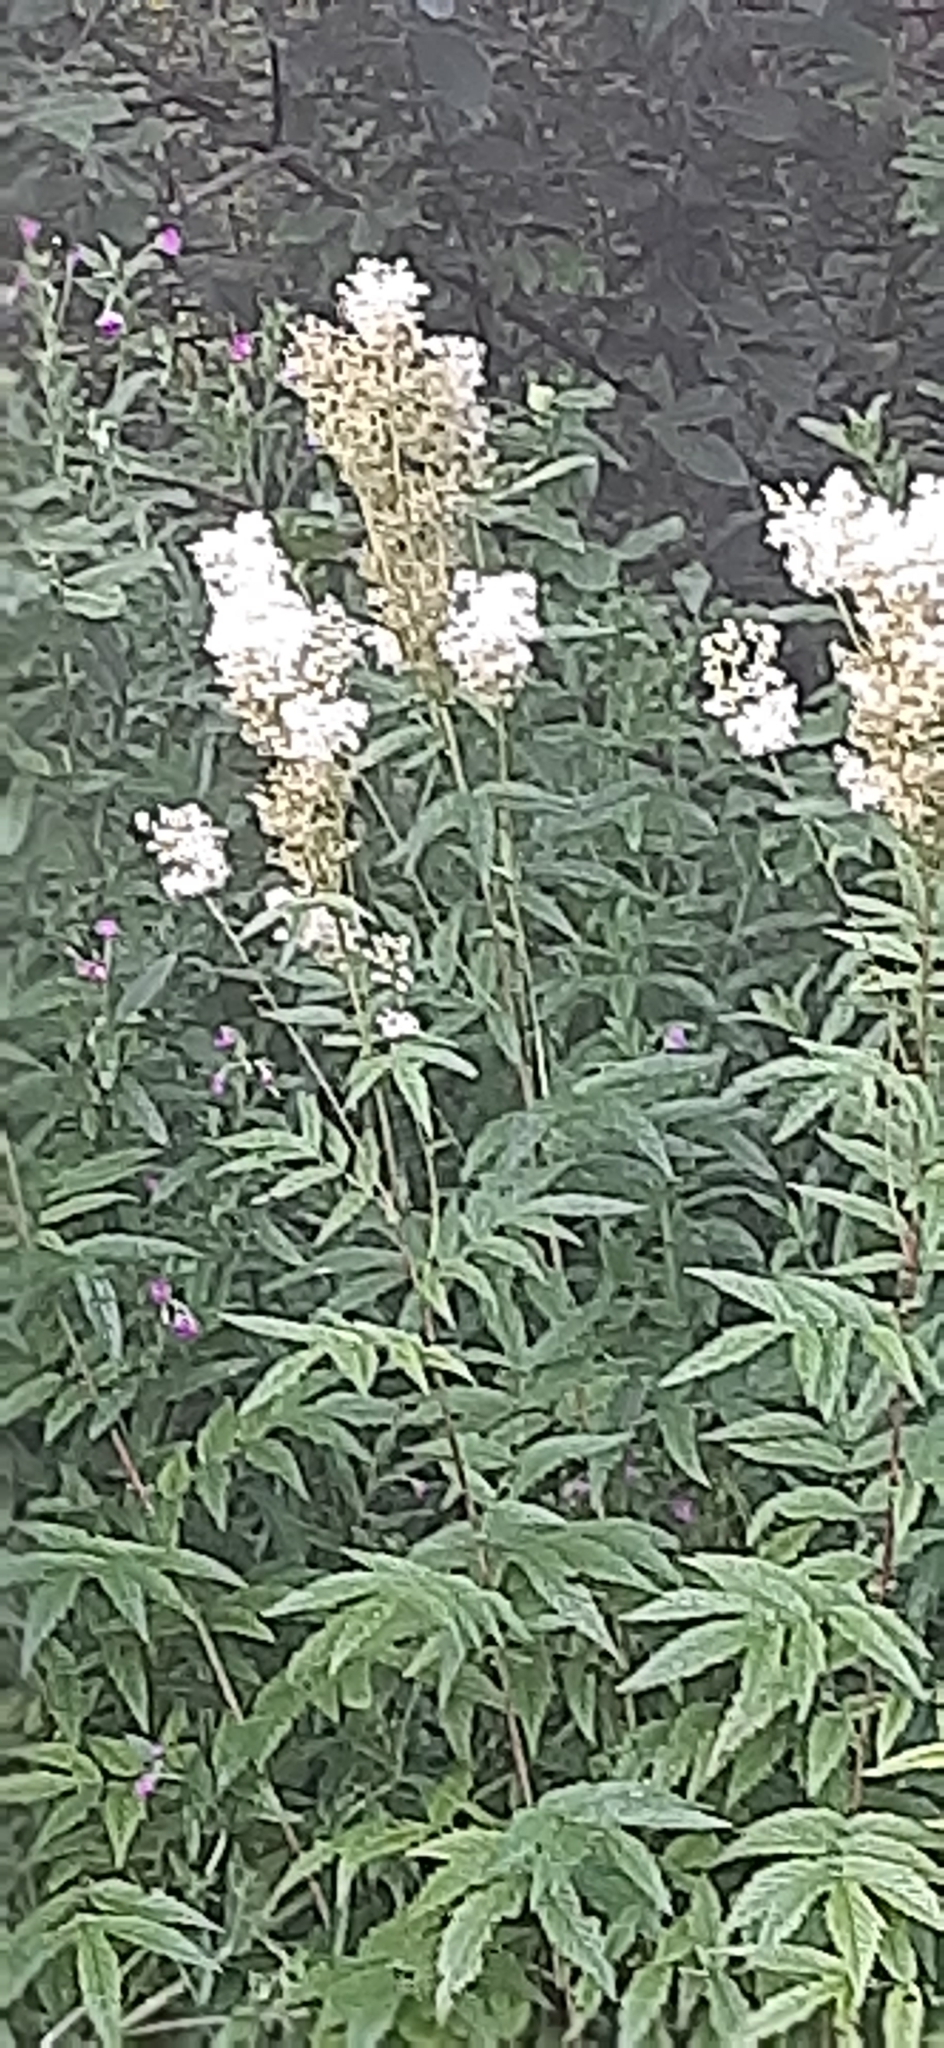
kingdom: Plantae
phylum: Tracheophyta
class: Magnoliopsida
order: Rosales
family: Rosaceae
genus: Filipendula
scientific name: Filipendula ulmaria
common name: Meadowsweet
